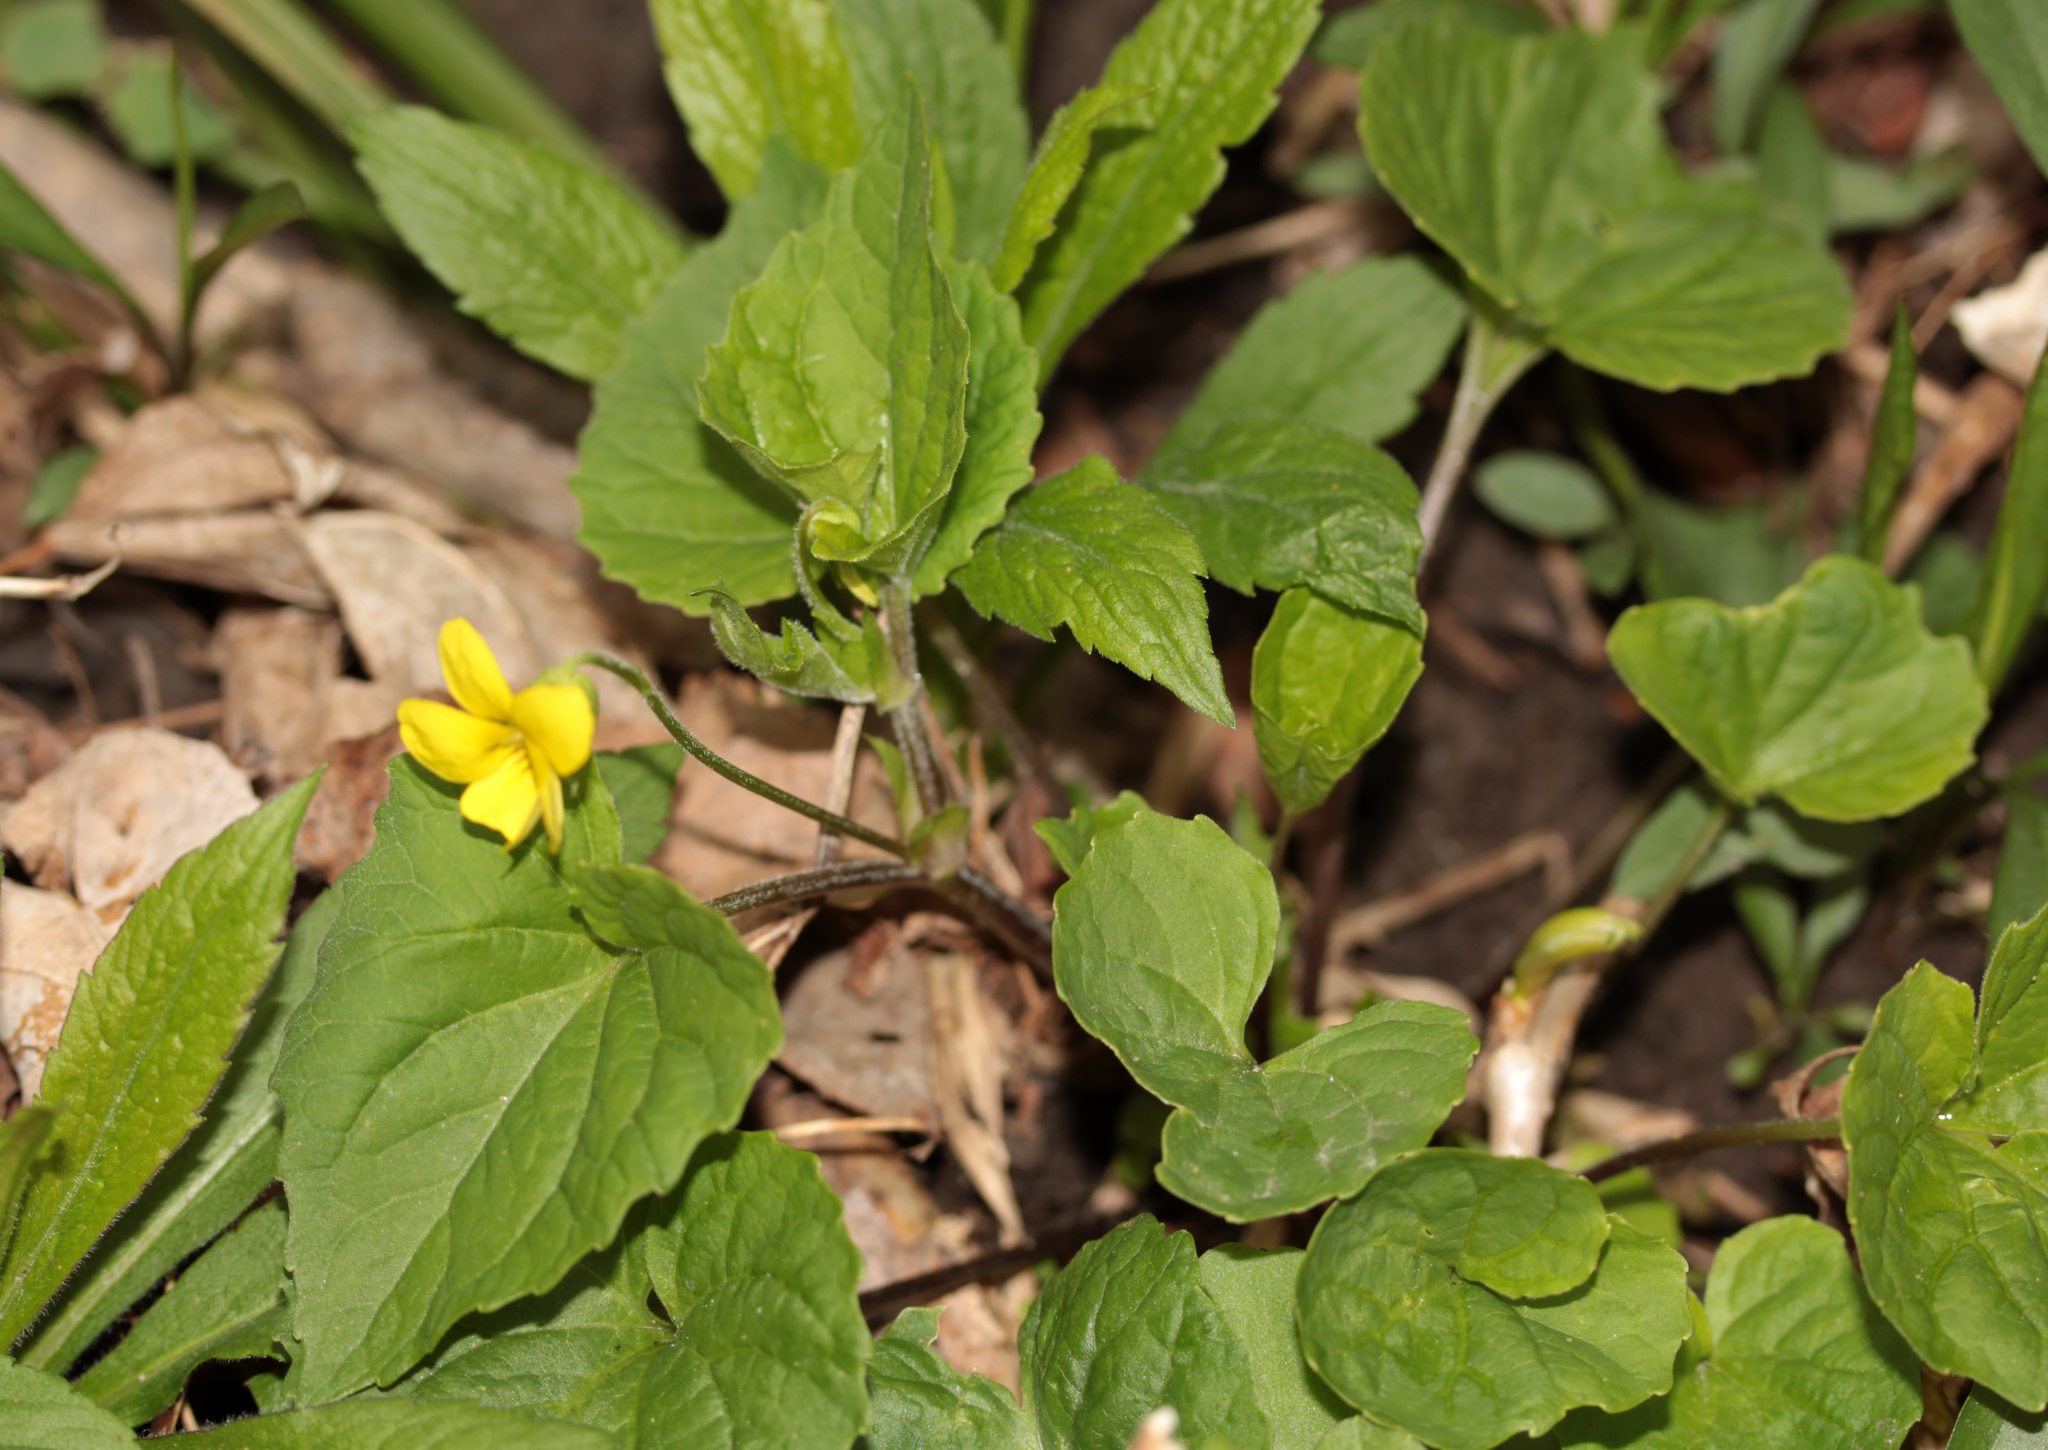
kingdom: Plantae
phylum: Tracheophyta
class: Magnoliopsida
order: Malpighiales
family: Violaceae
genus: Viola
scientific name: Viola eriocarpa
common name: Smooth yellow violet
